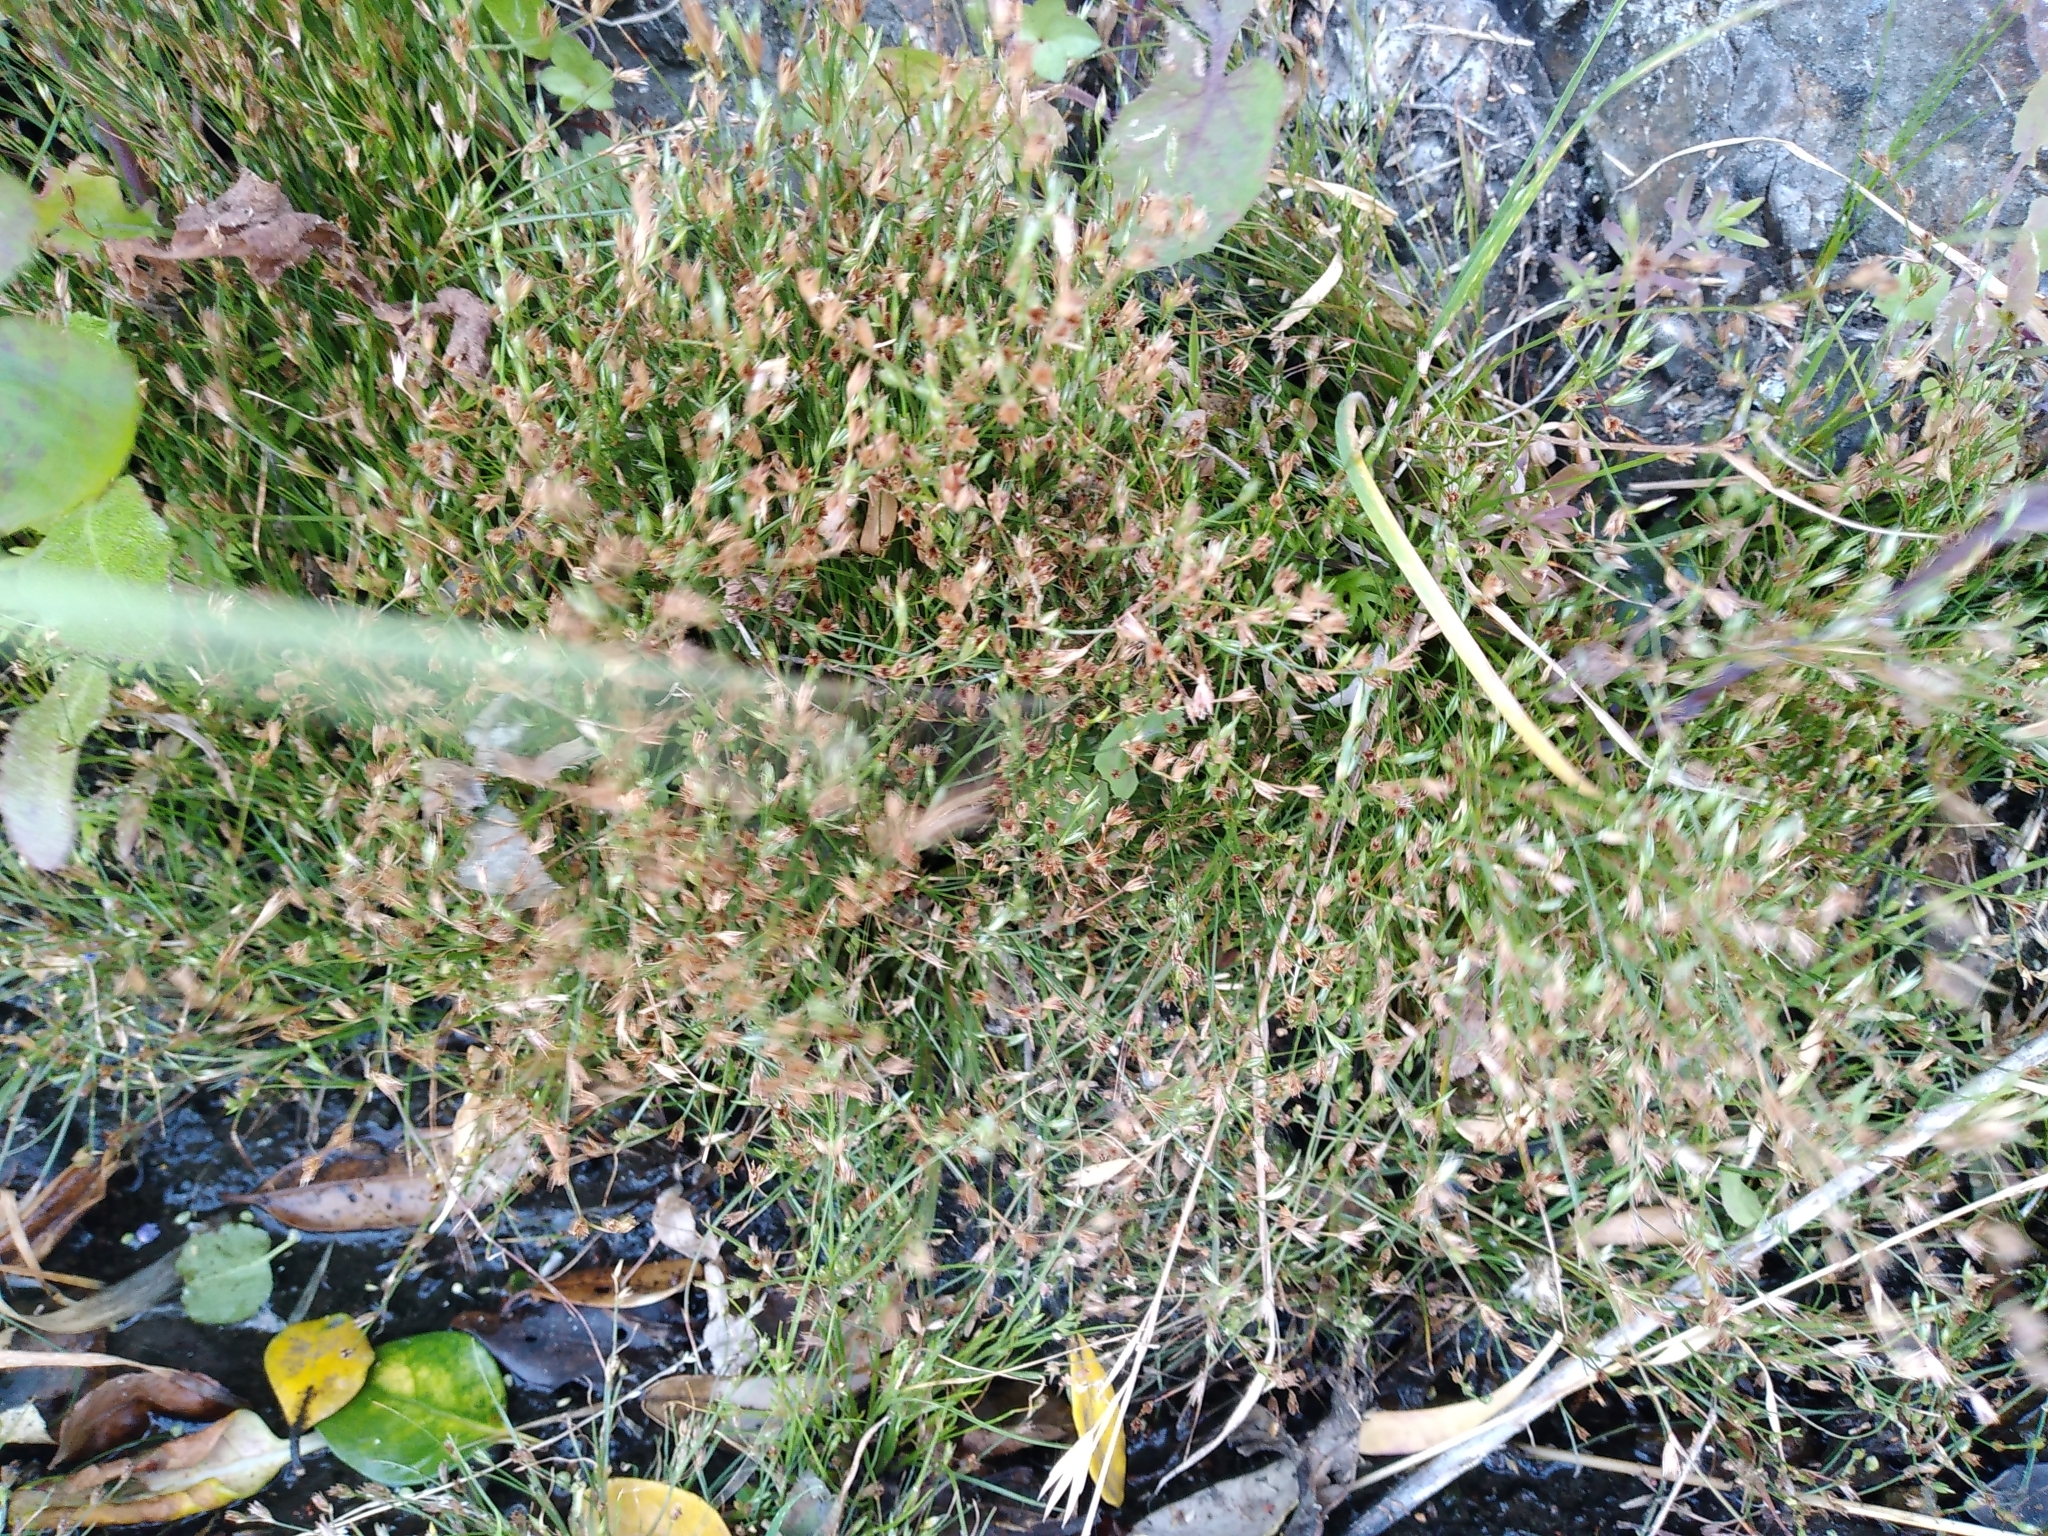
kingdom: Plantae
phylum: Tracheophyta
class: Liliopsida
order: Poales
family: Juncaceae
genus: Juncus
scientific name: Juncus bufonius
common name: Toad rush
